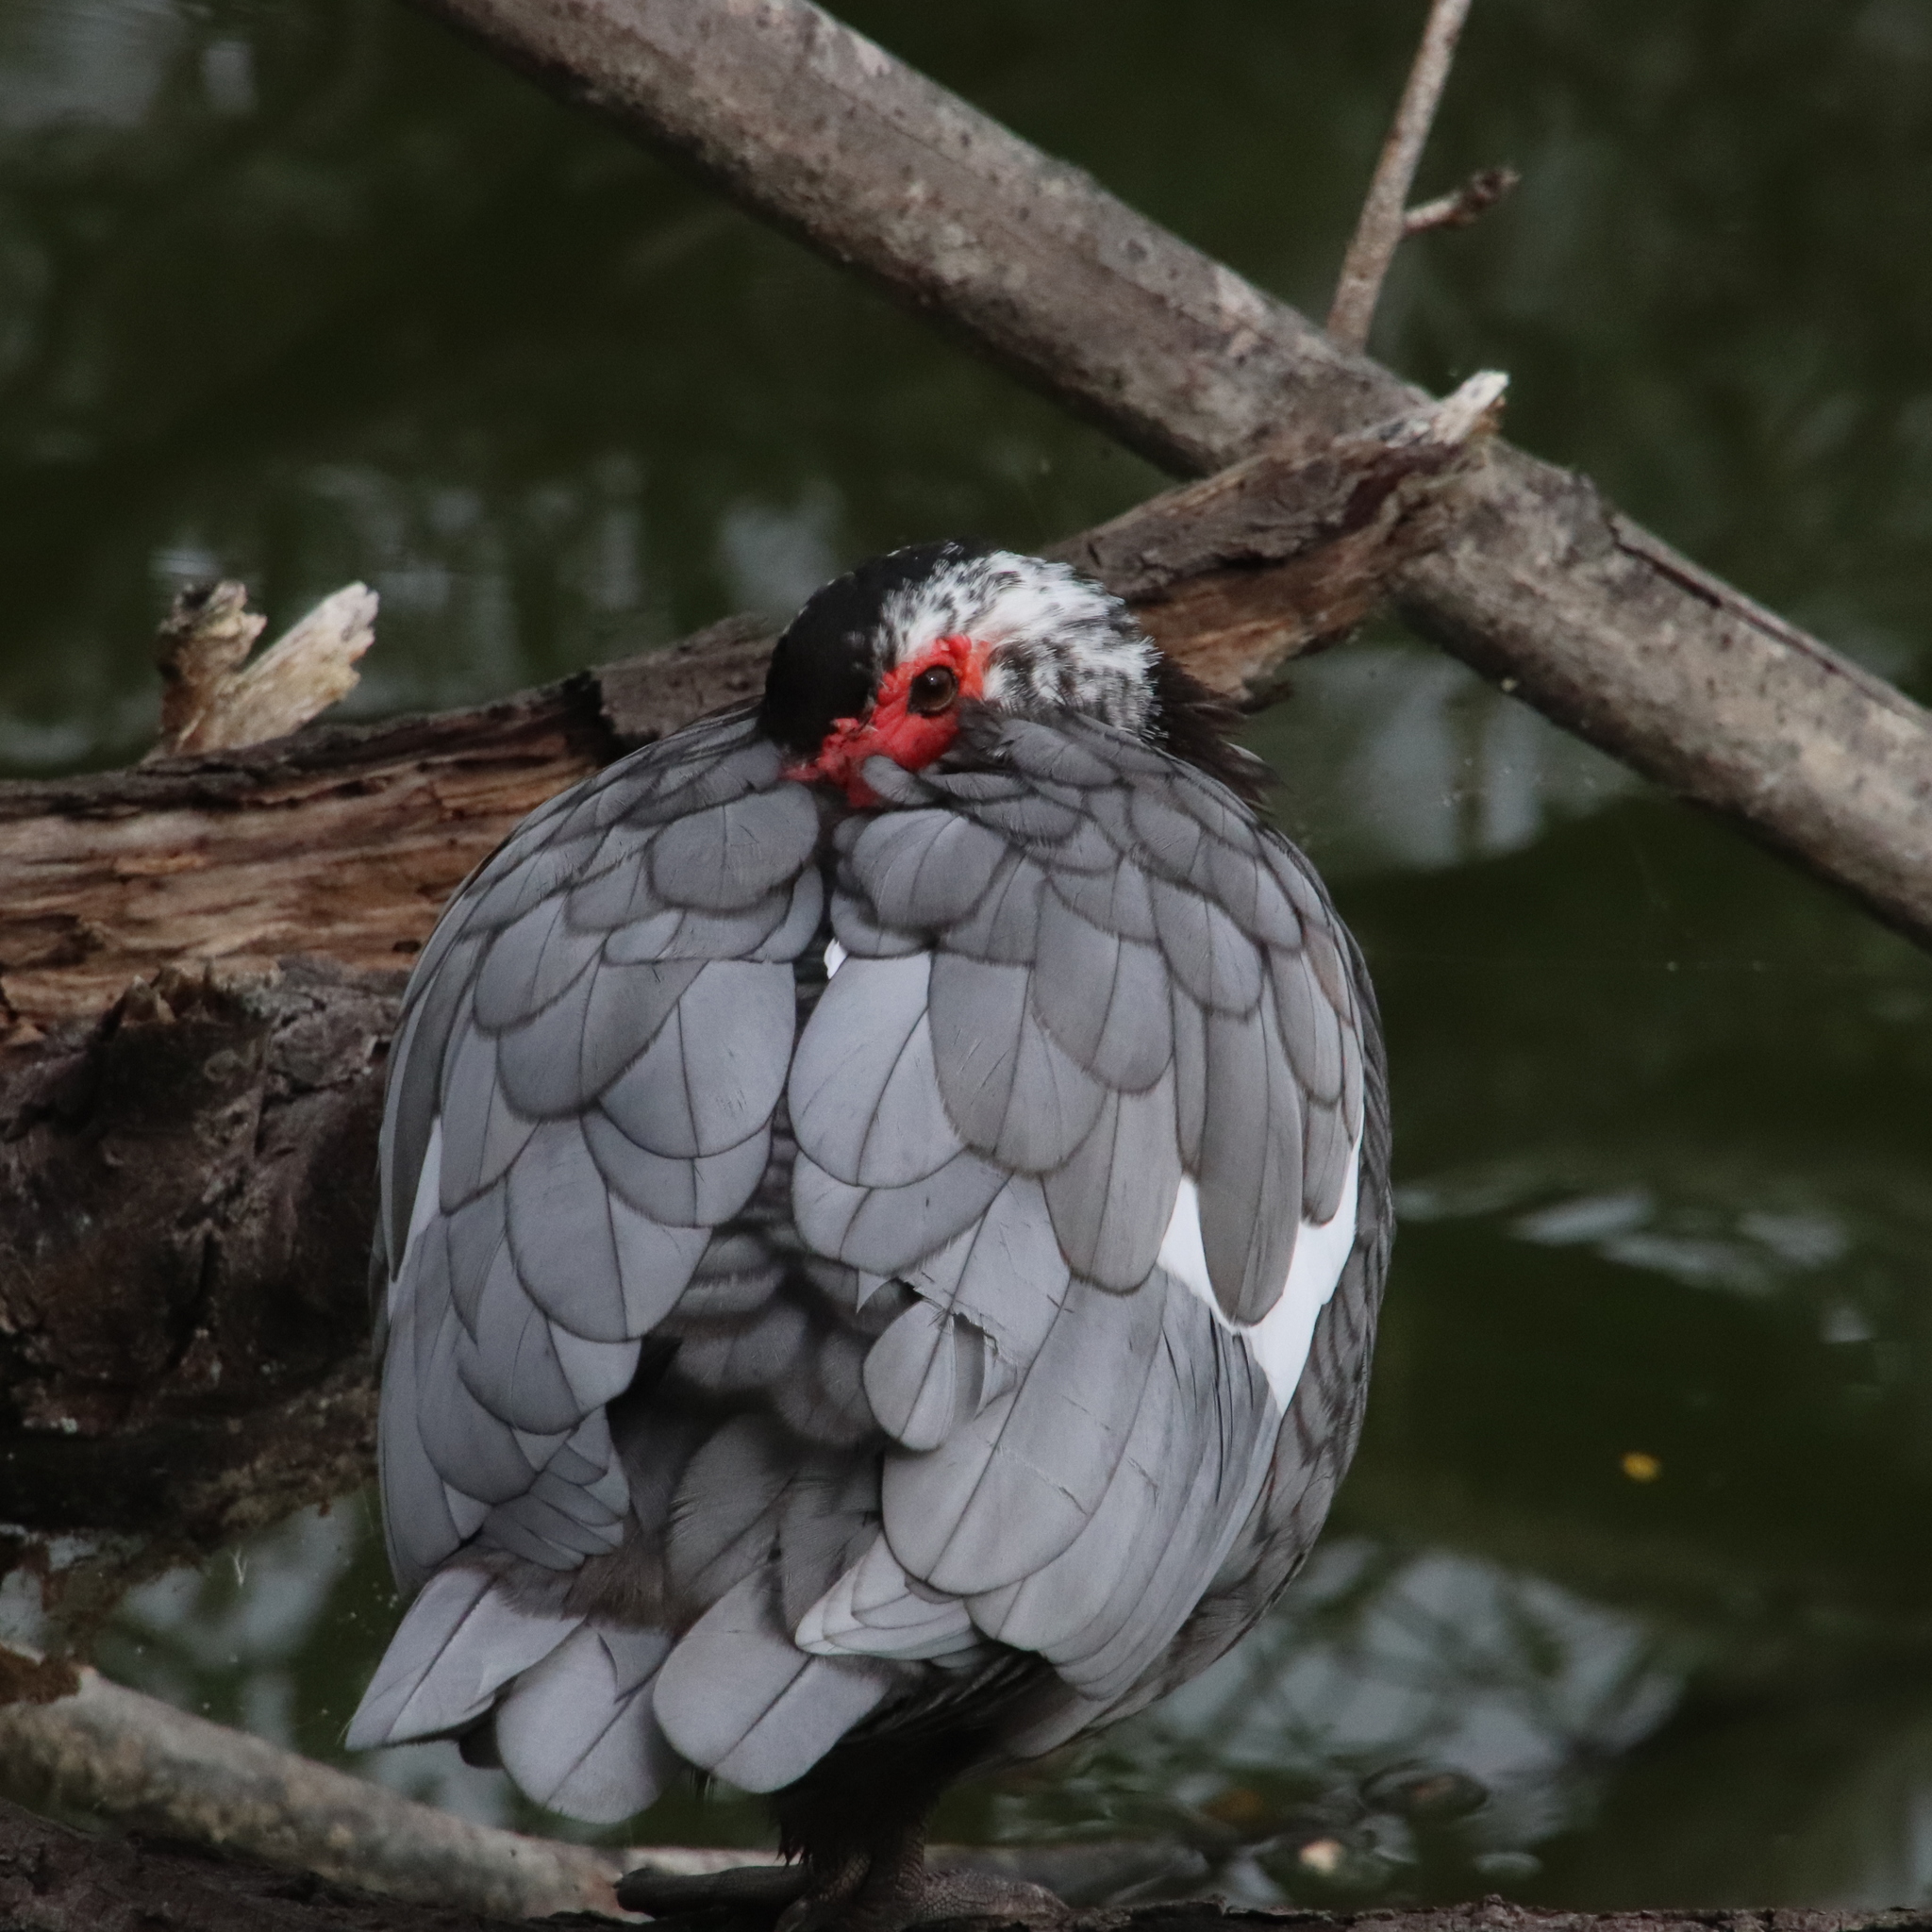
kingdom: Animalia
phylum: Chordata
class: Aves
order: Anseriformes
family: Anatidae
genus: Cairina
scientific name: Cairina moschata
